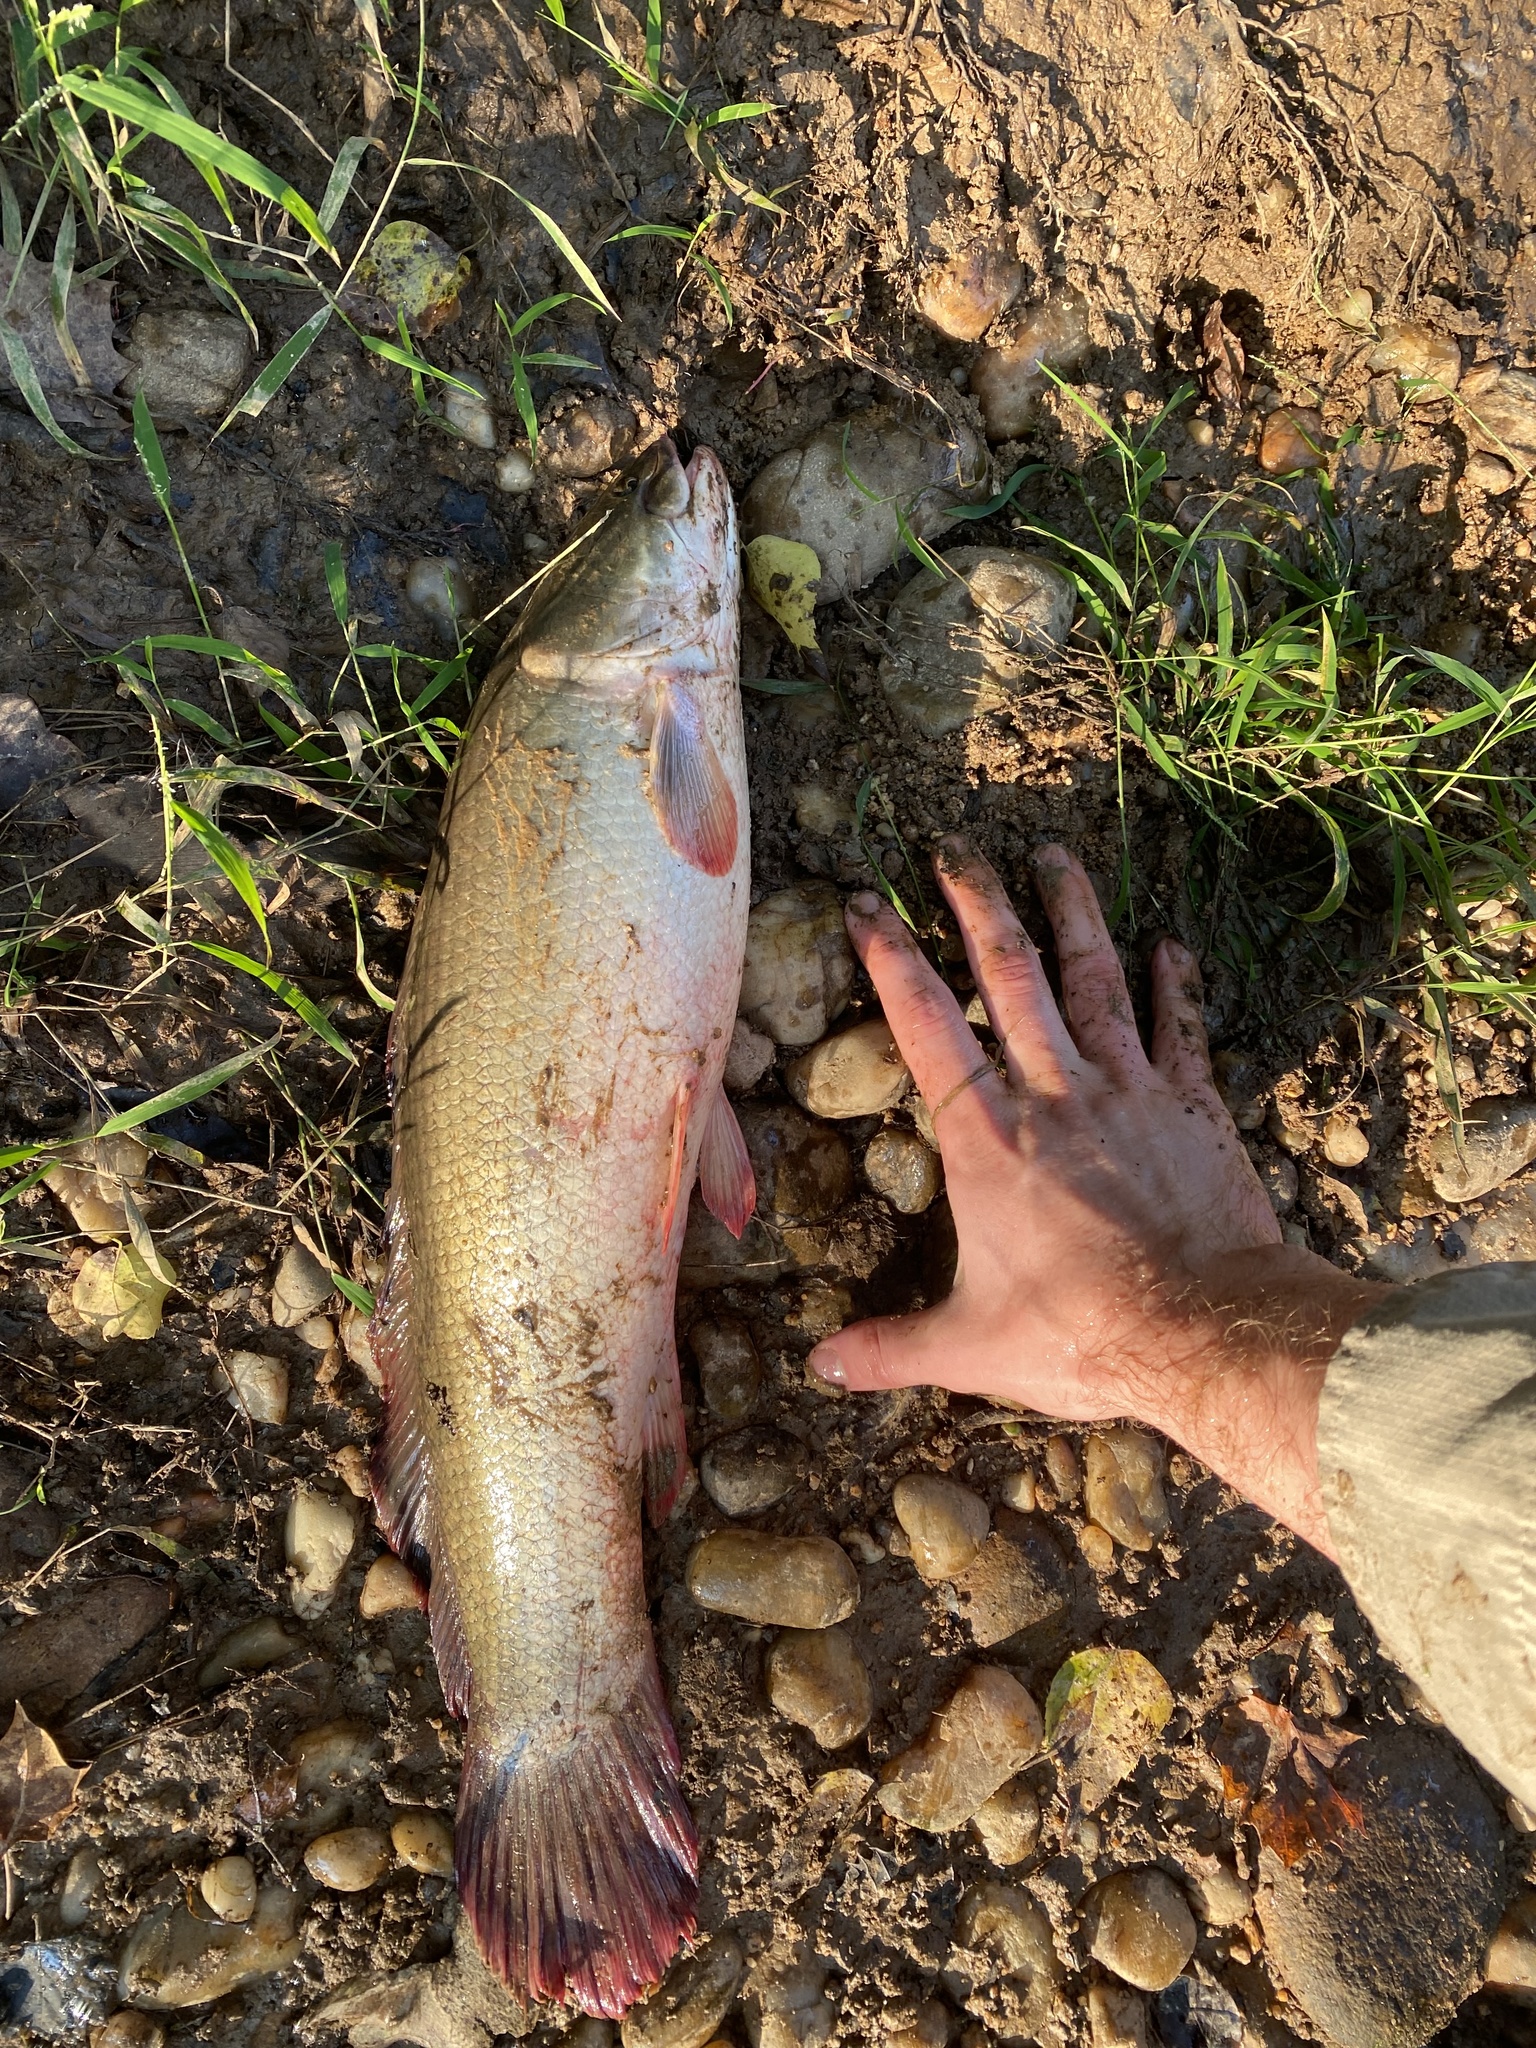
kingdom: Animalia
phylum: Chordata
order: Amiiformes
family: Amiidae
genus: Amia
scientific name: Amia calva
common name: Bowfin
